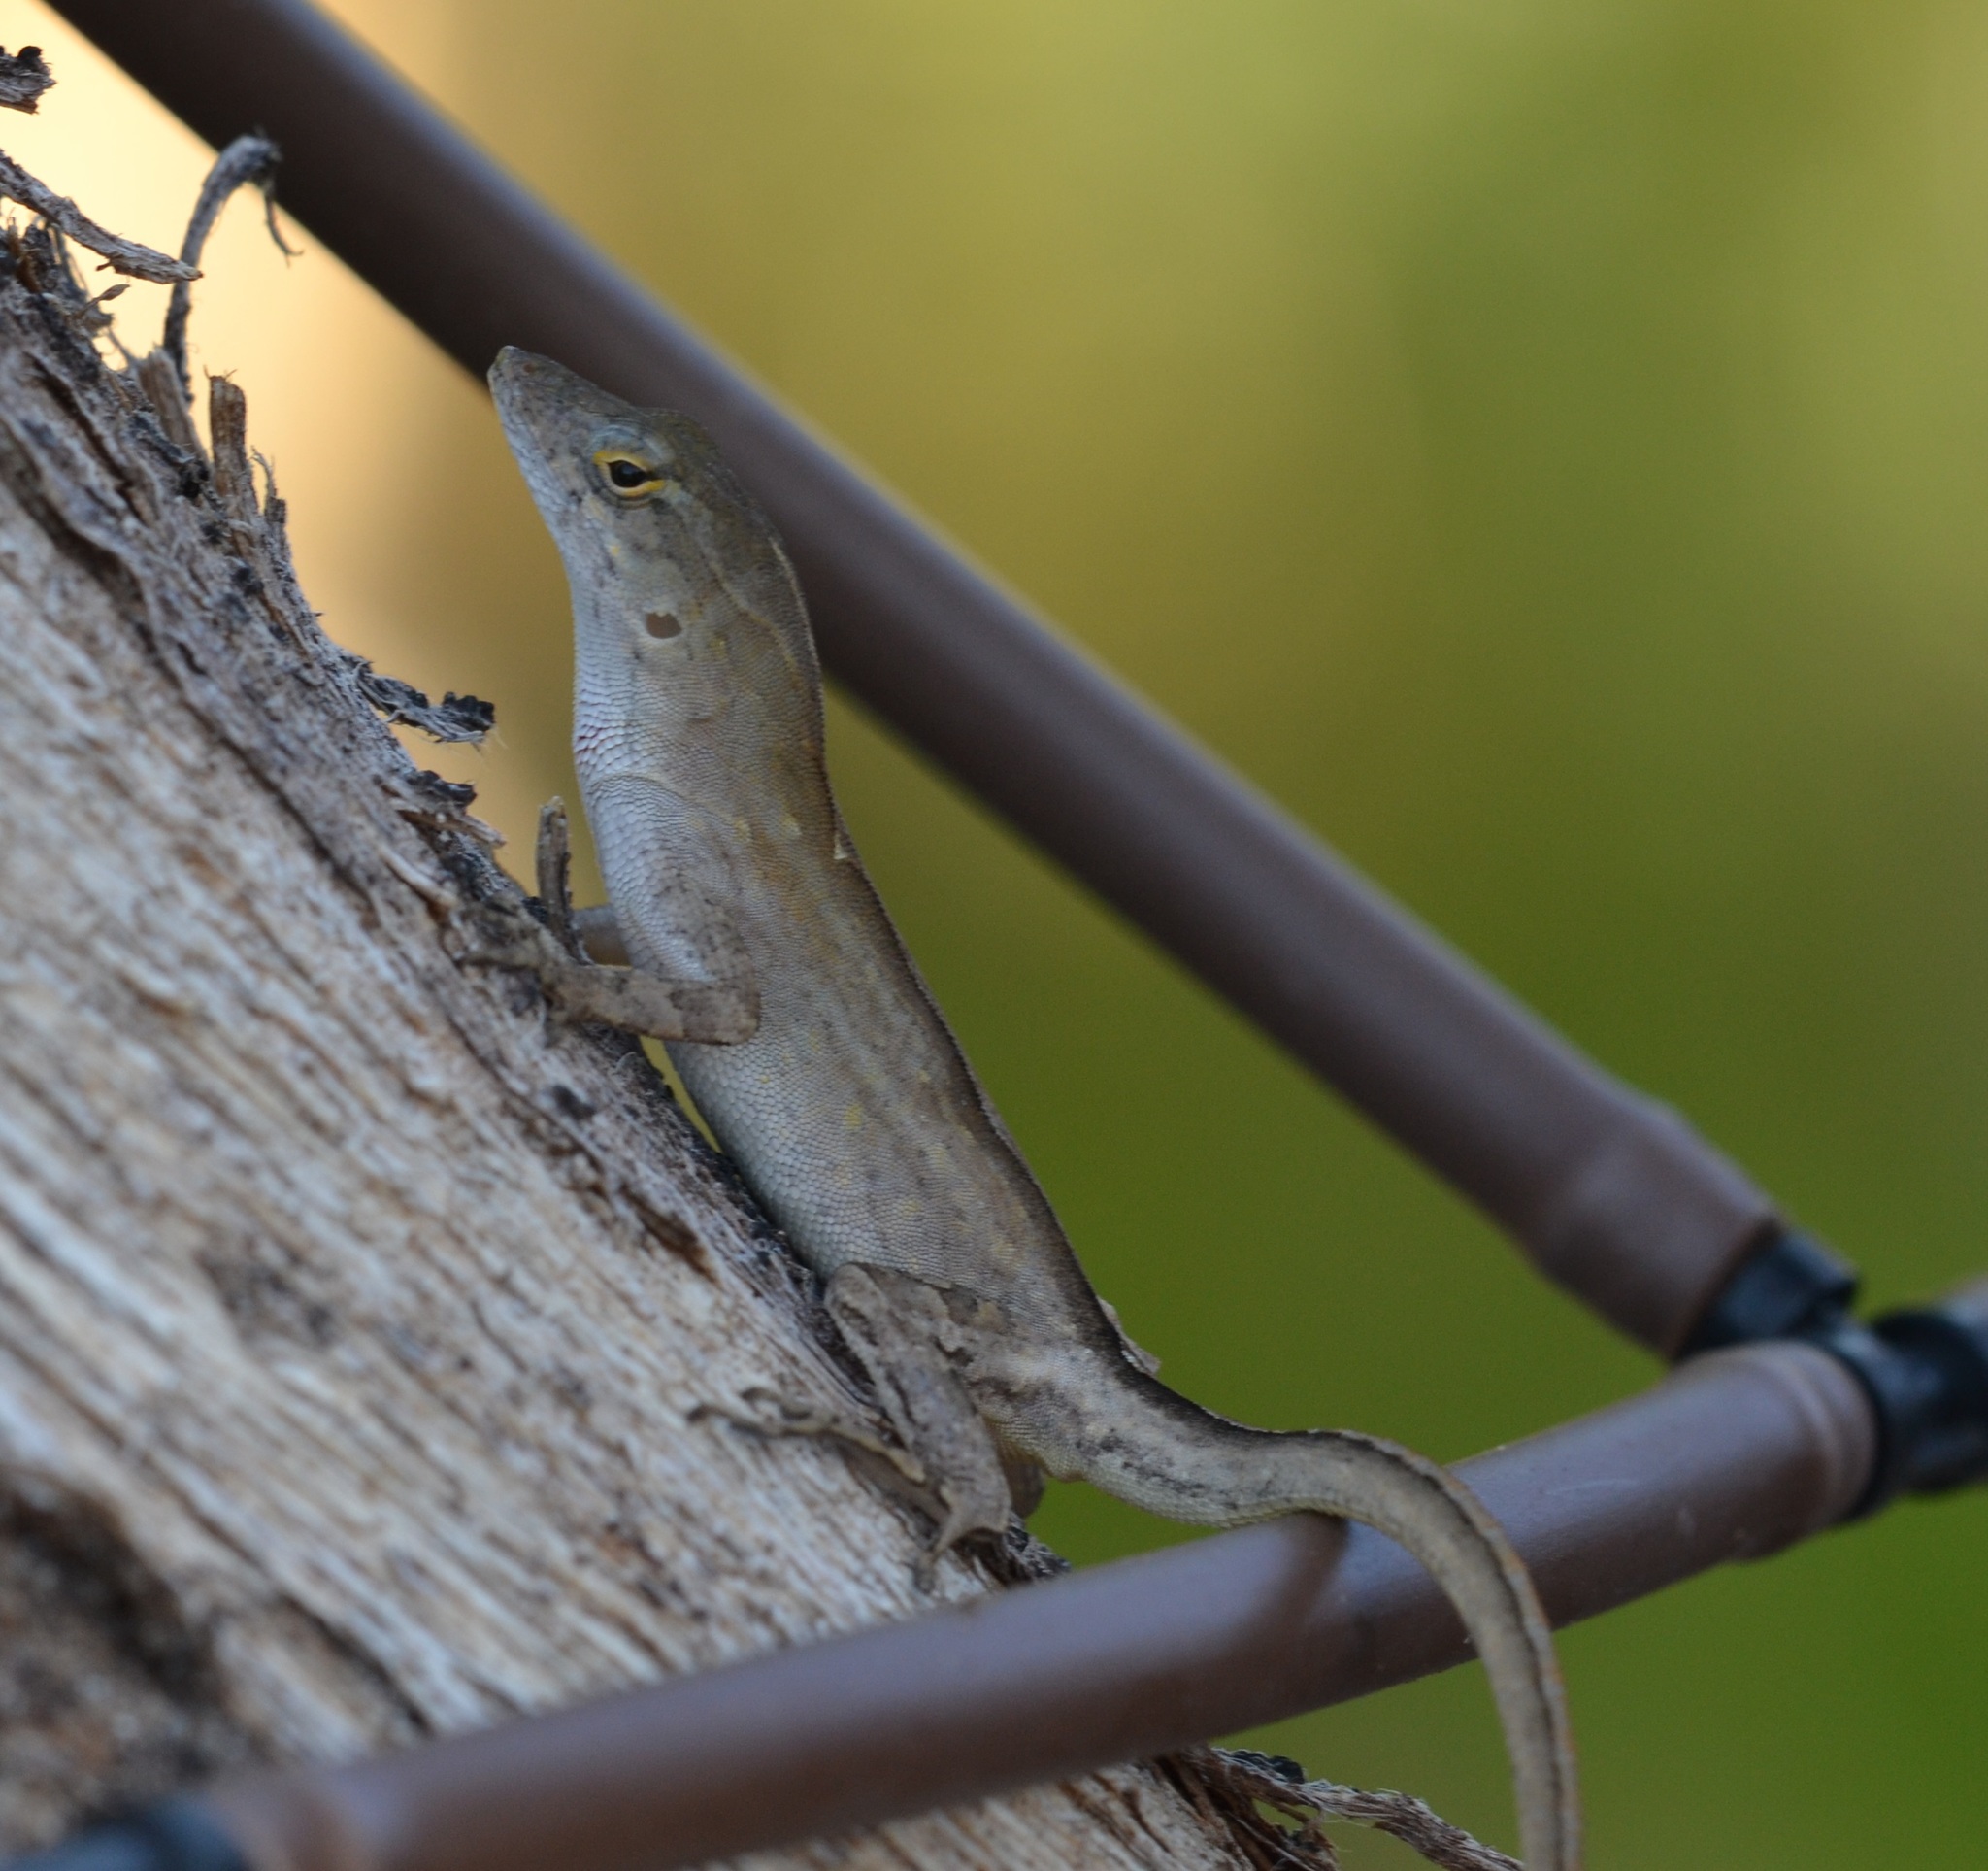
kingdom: Animalia
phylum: Chordata
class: Squamata
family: Dactyloidae
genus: Anolis
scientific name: Anolis sagrei
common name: Brown anole
